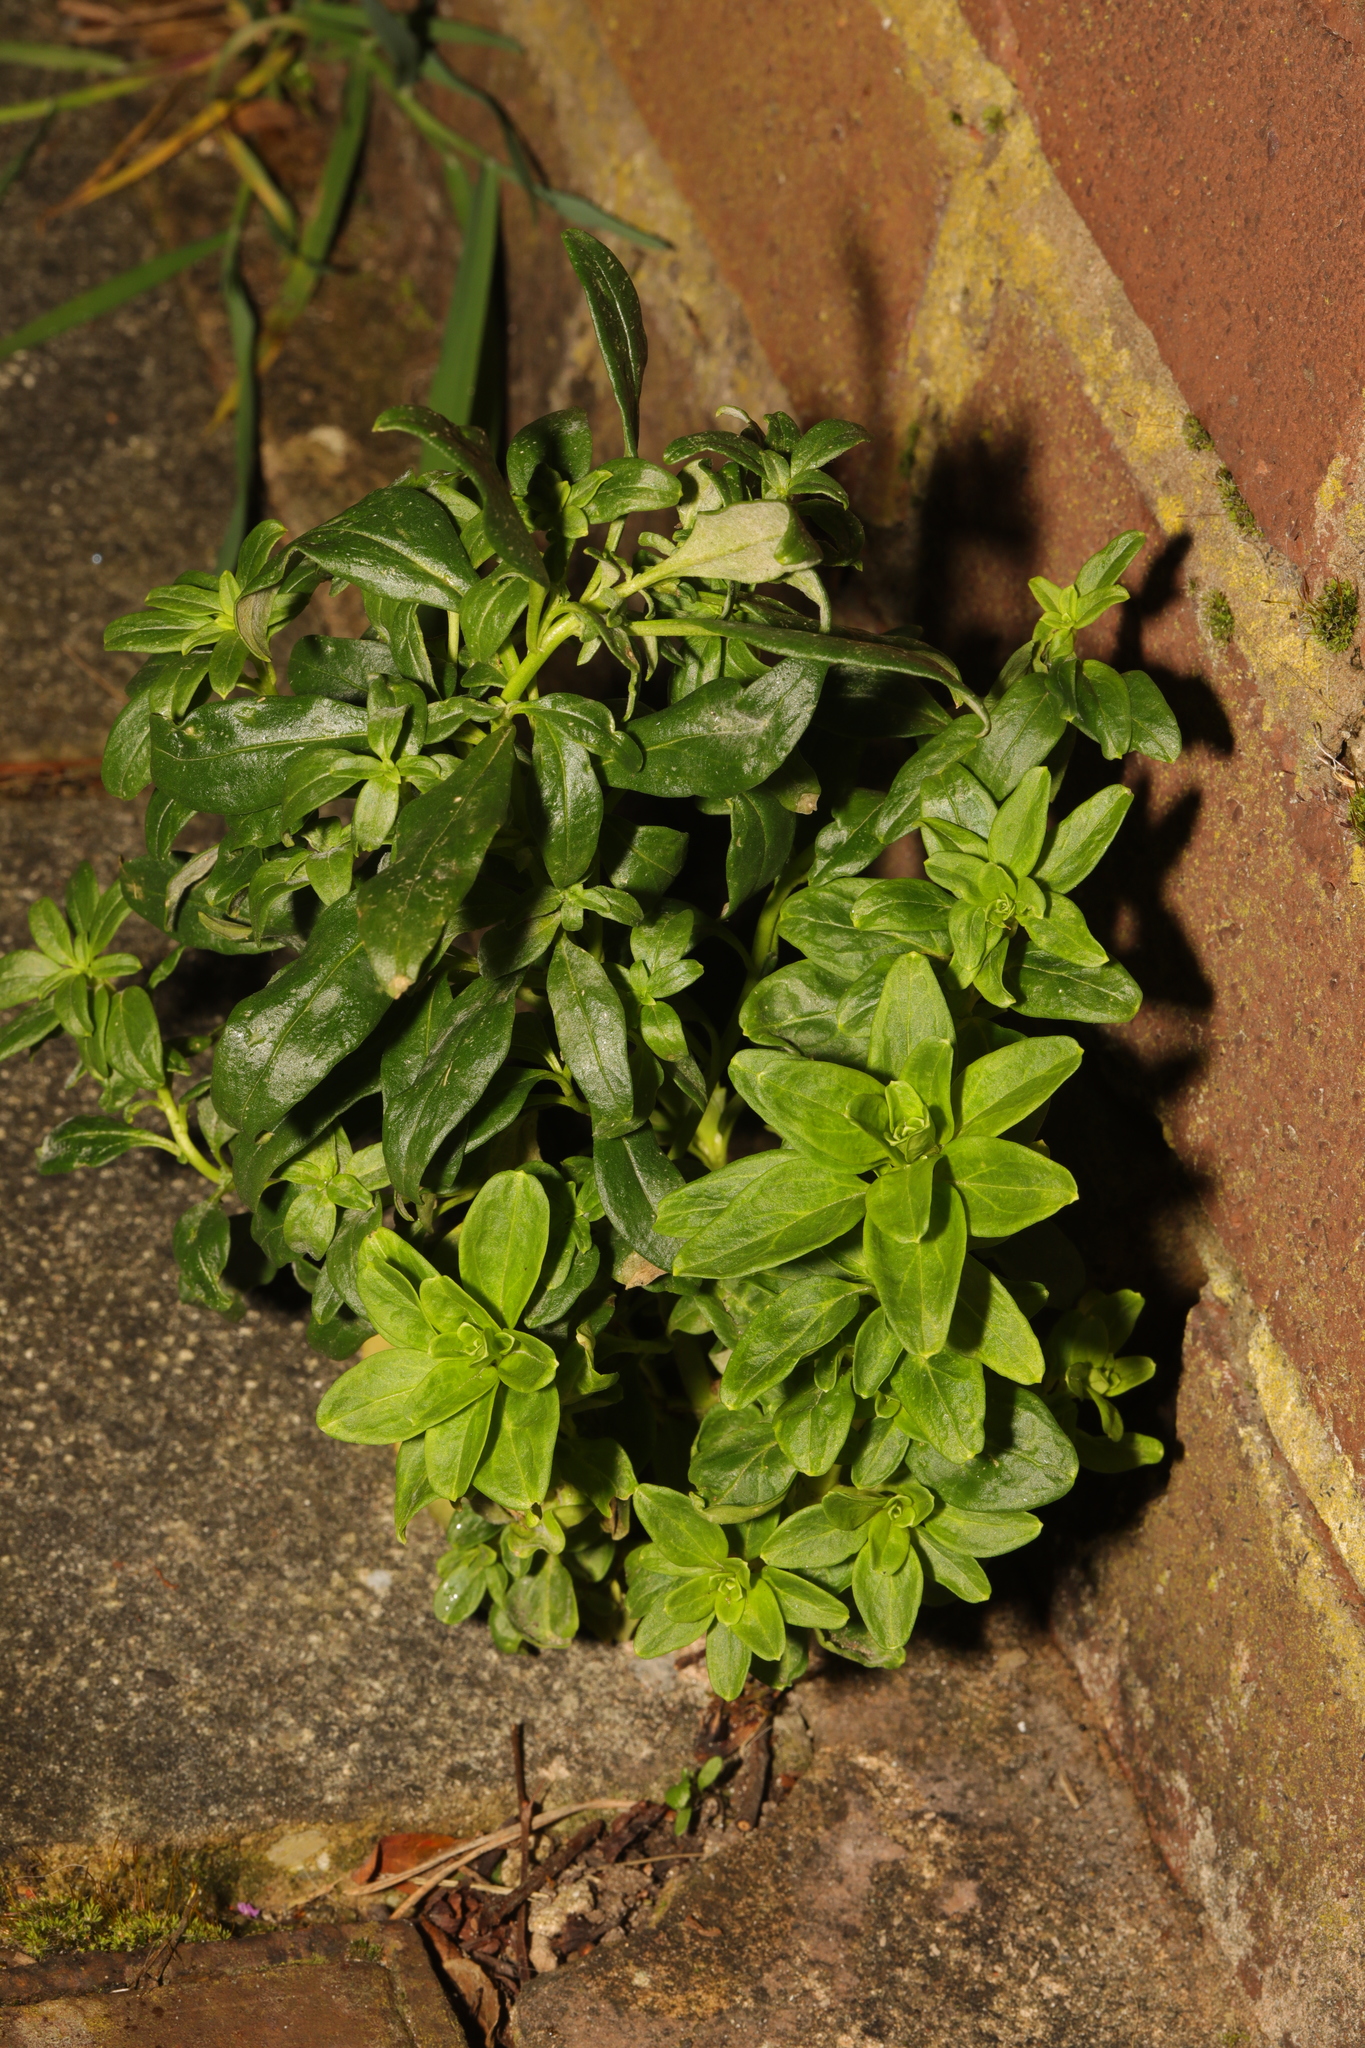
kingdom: Plantae
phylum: Tracheophyta
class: Magnoliopsida
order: Lamiales
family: Plantaginaceae
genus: Antirrhinum
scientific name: Antirrhinum majus
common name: Snapdragon
